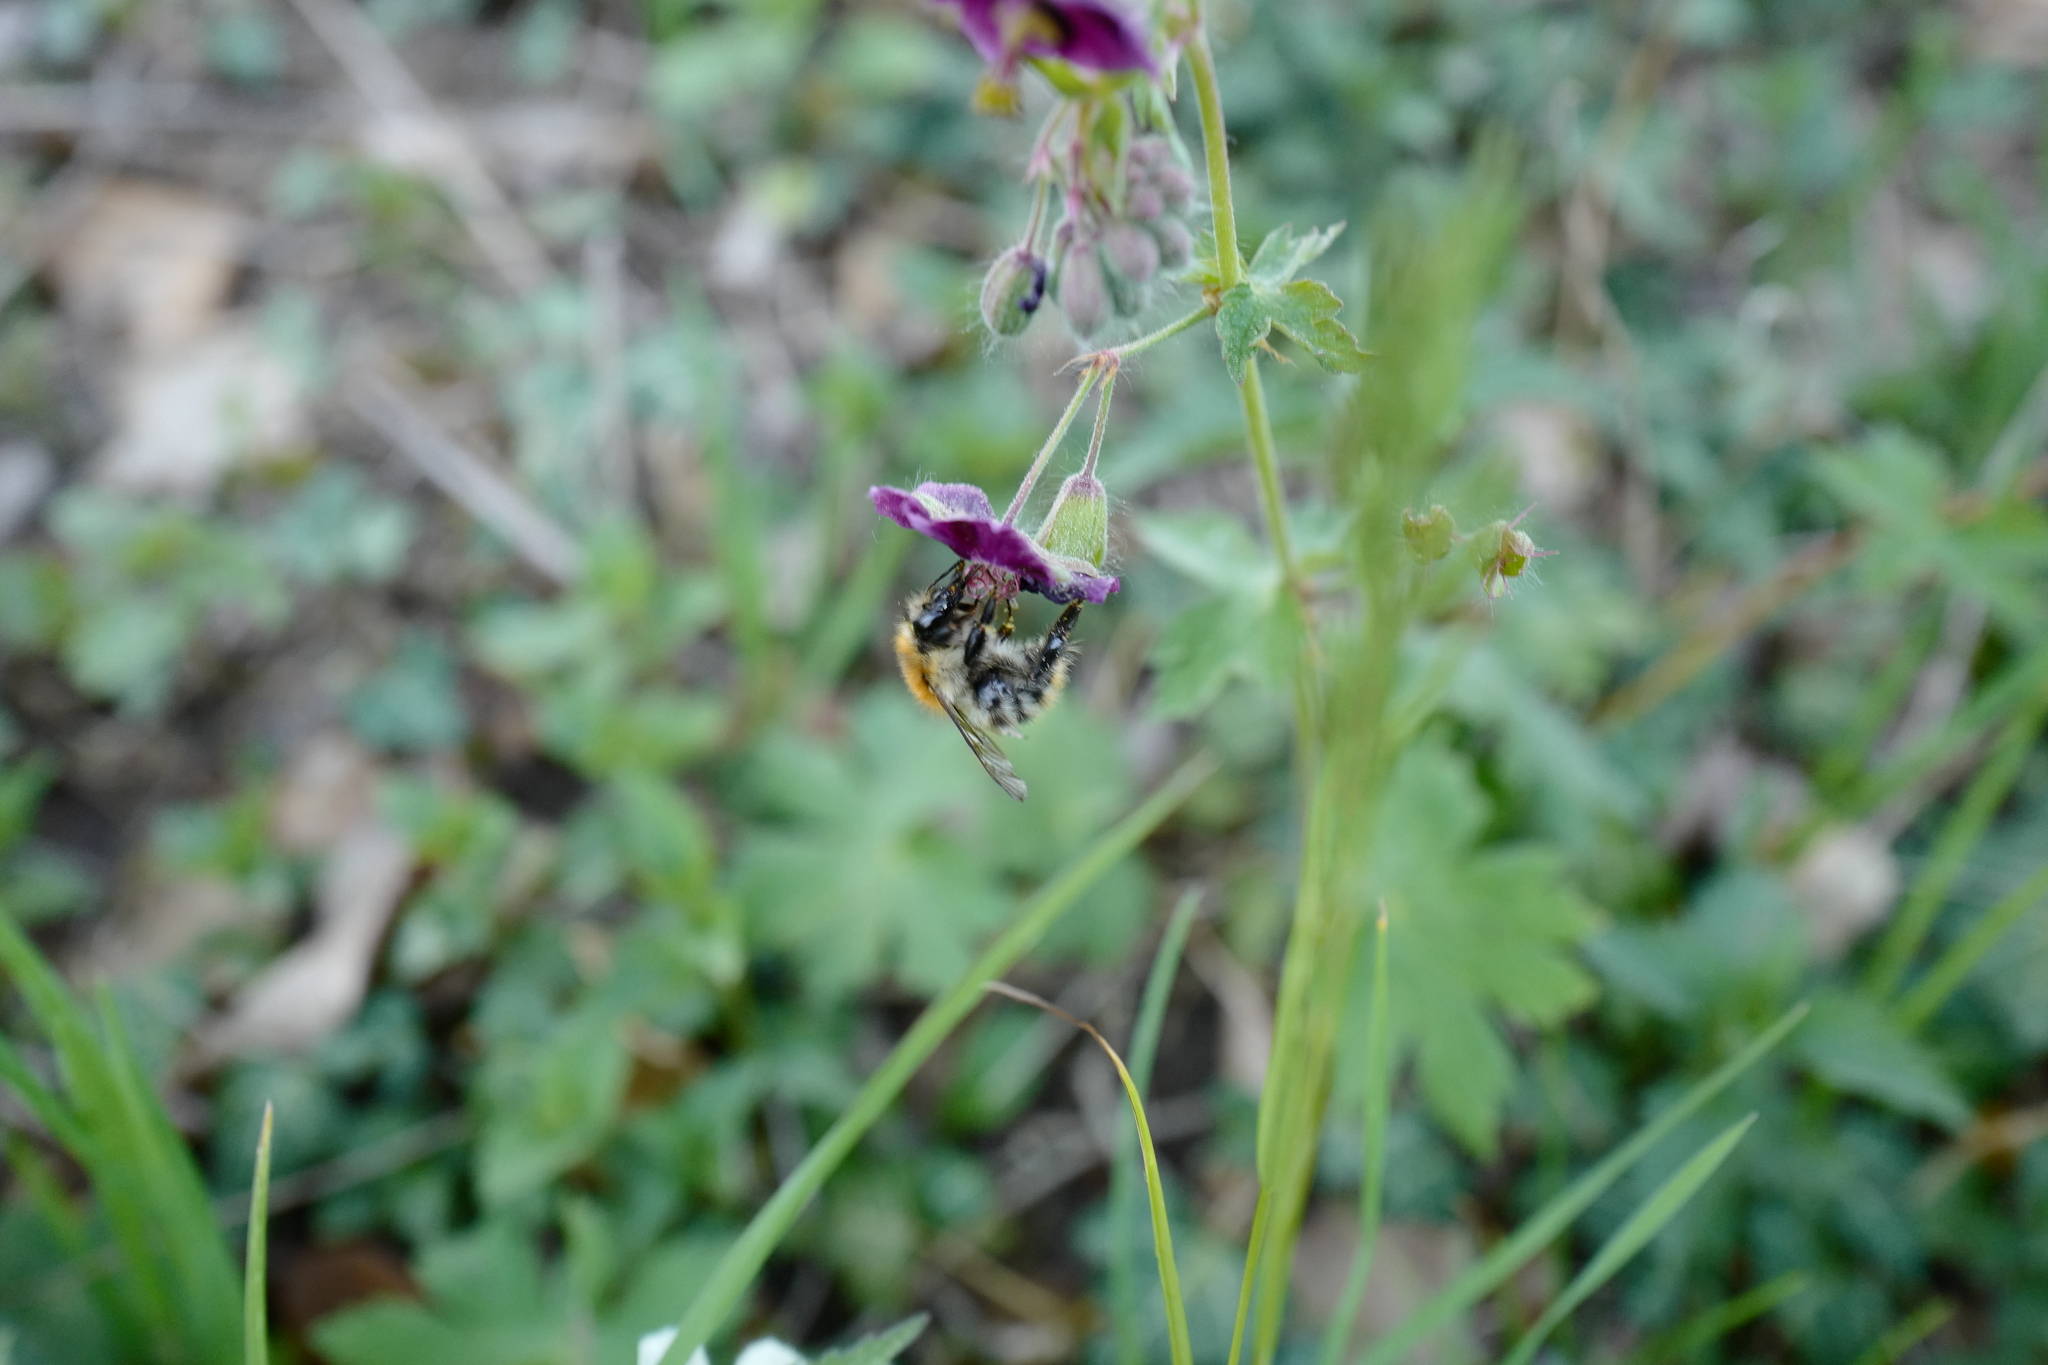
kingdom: Animalia
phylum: Arthropoda
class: Insecta
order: Hymenoptera
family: Apidae
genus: Bombus
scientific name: Bombus pascuorum
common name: Common carder bee
